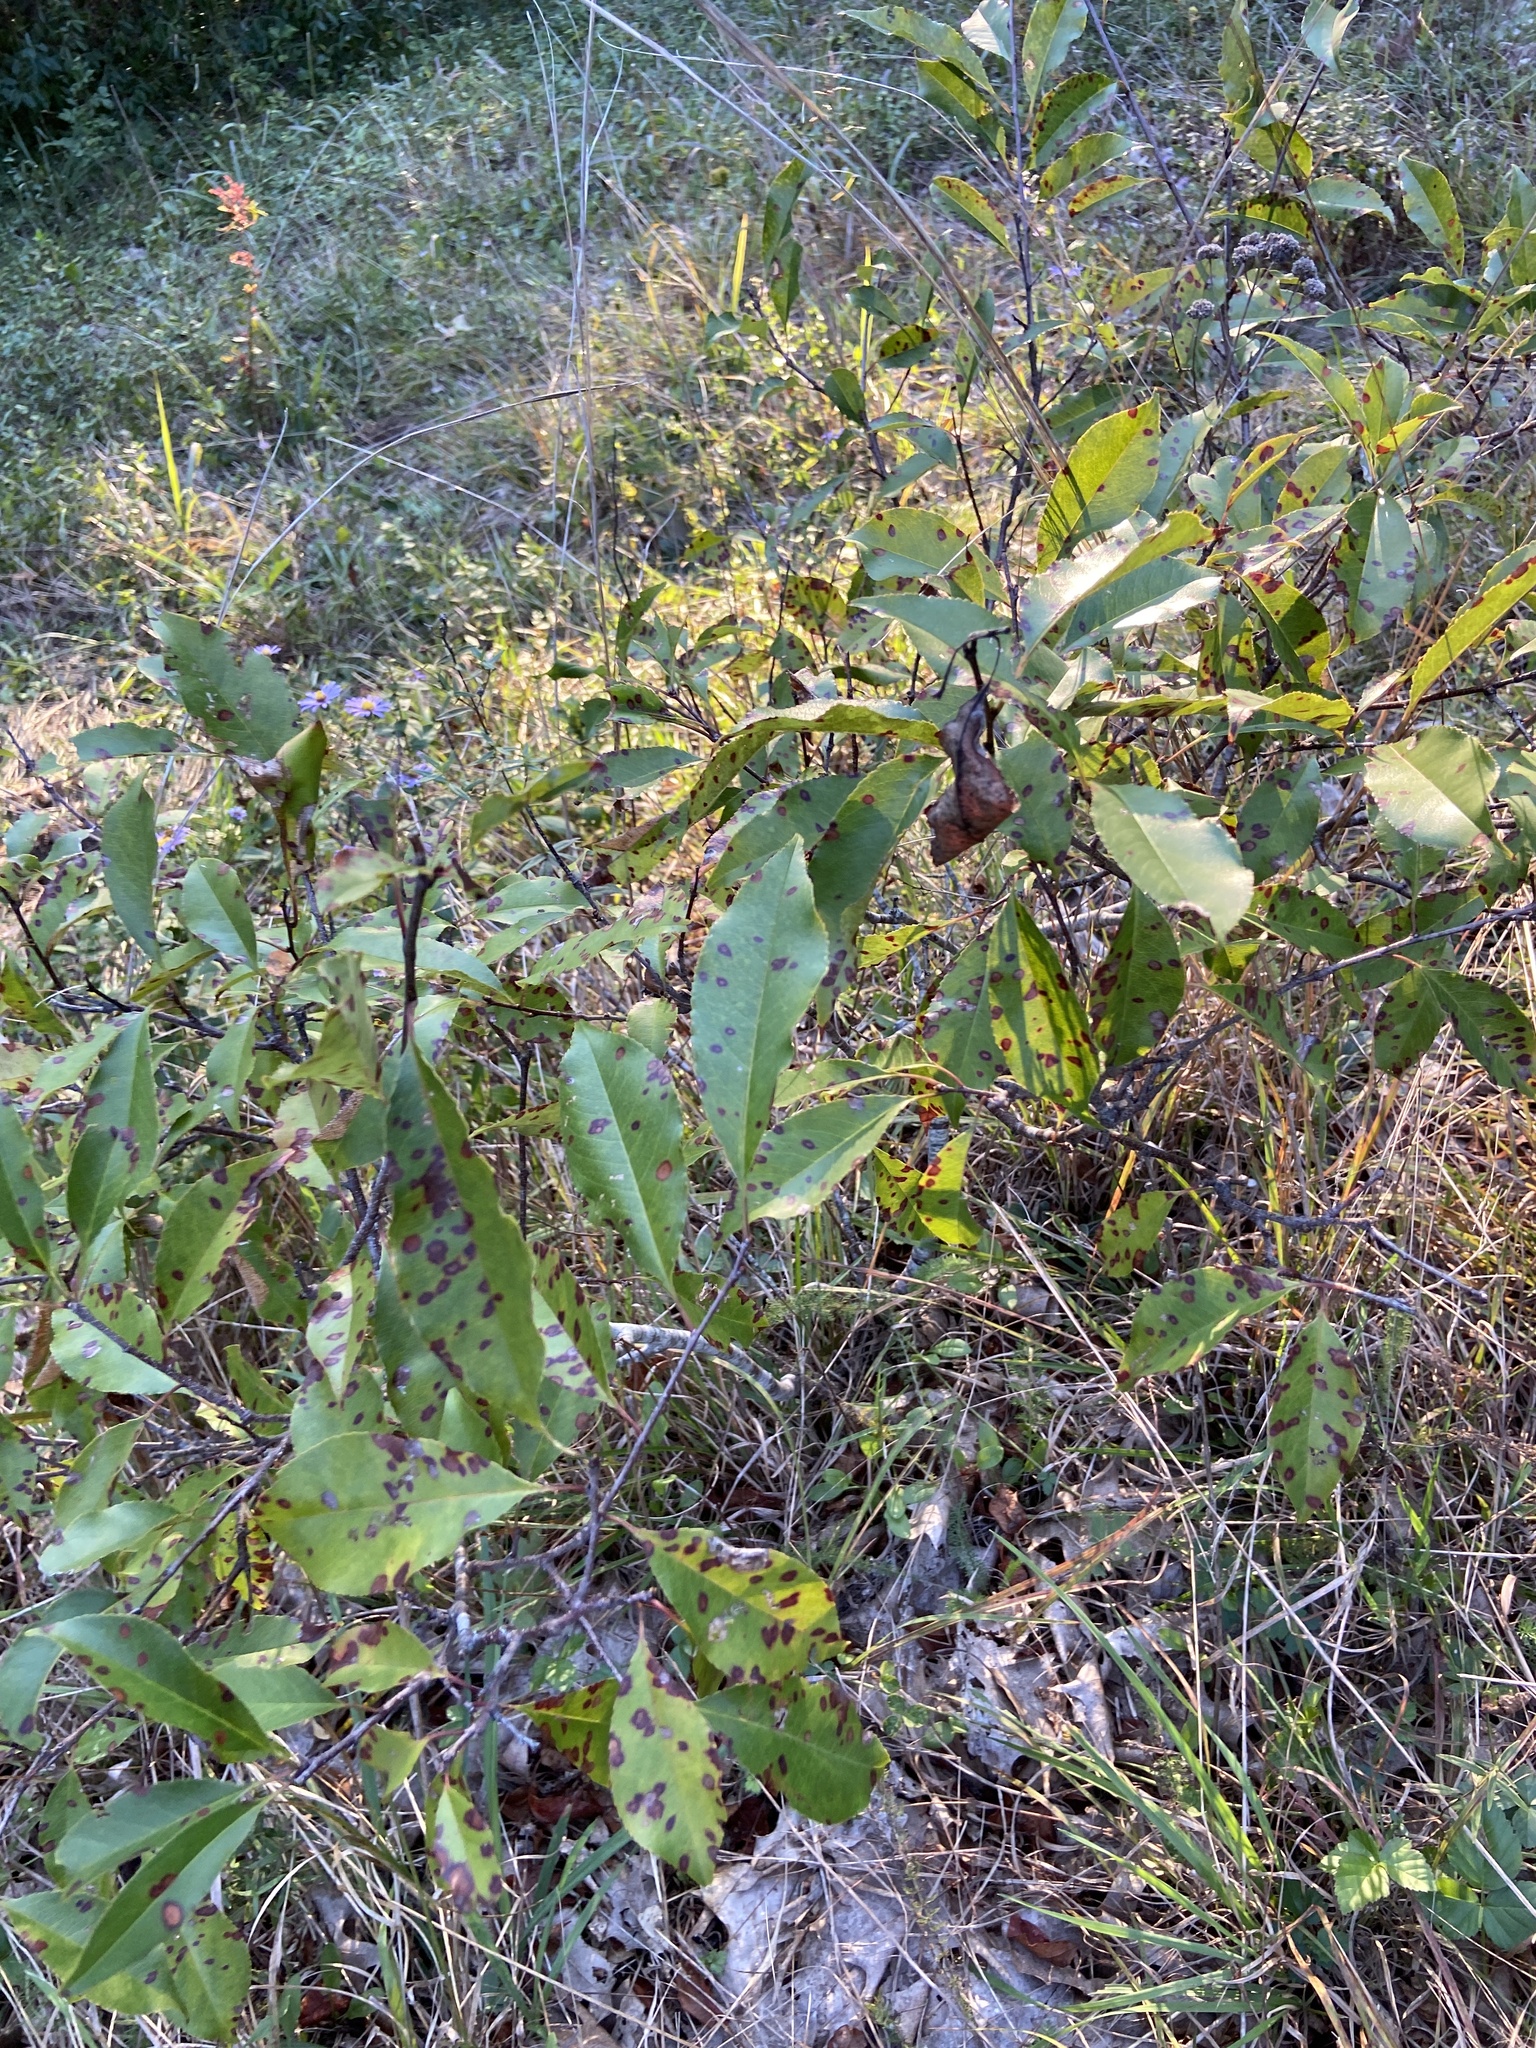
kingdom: Plantae
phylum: Tracheophyta
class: Magnoliopsida
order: Rosales
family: Rosaceae
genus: Prunus
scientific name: Prunus serotina
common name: Black cherry
